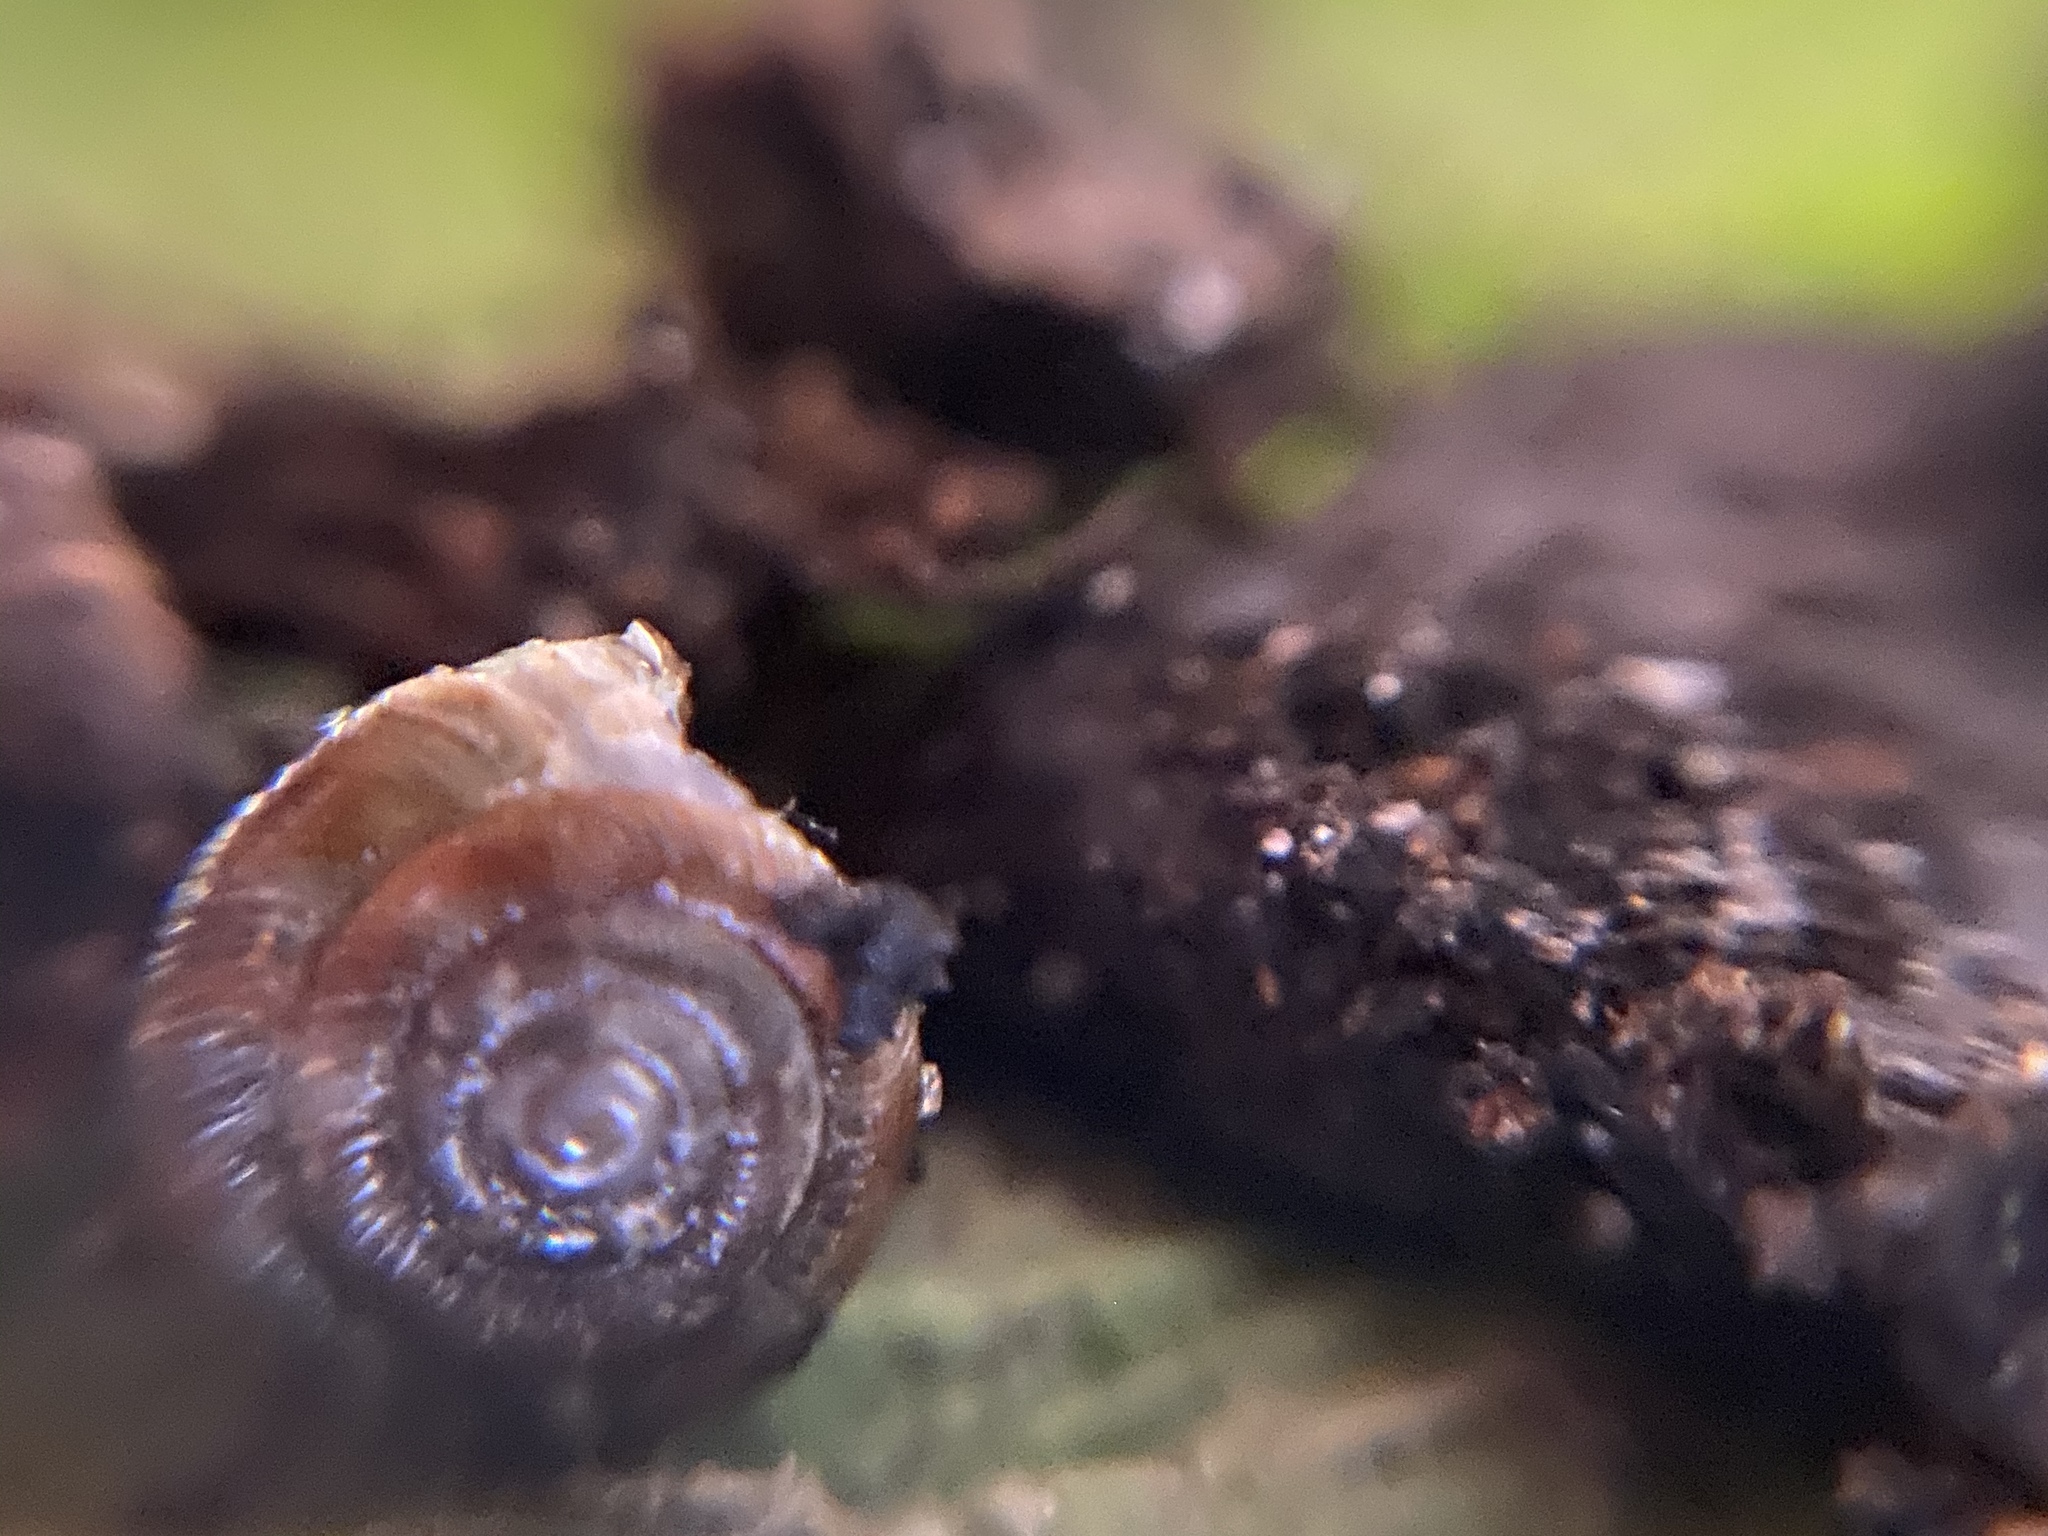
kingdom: Animalia
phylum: Mollusca
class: Gastropoda
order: Stylommatophora
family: Discidae
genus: Discus
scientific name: Discus rotundatus
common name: Rounded snail
